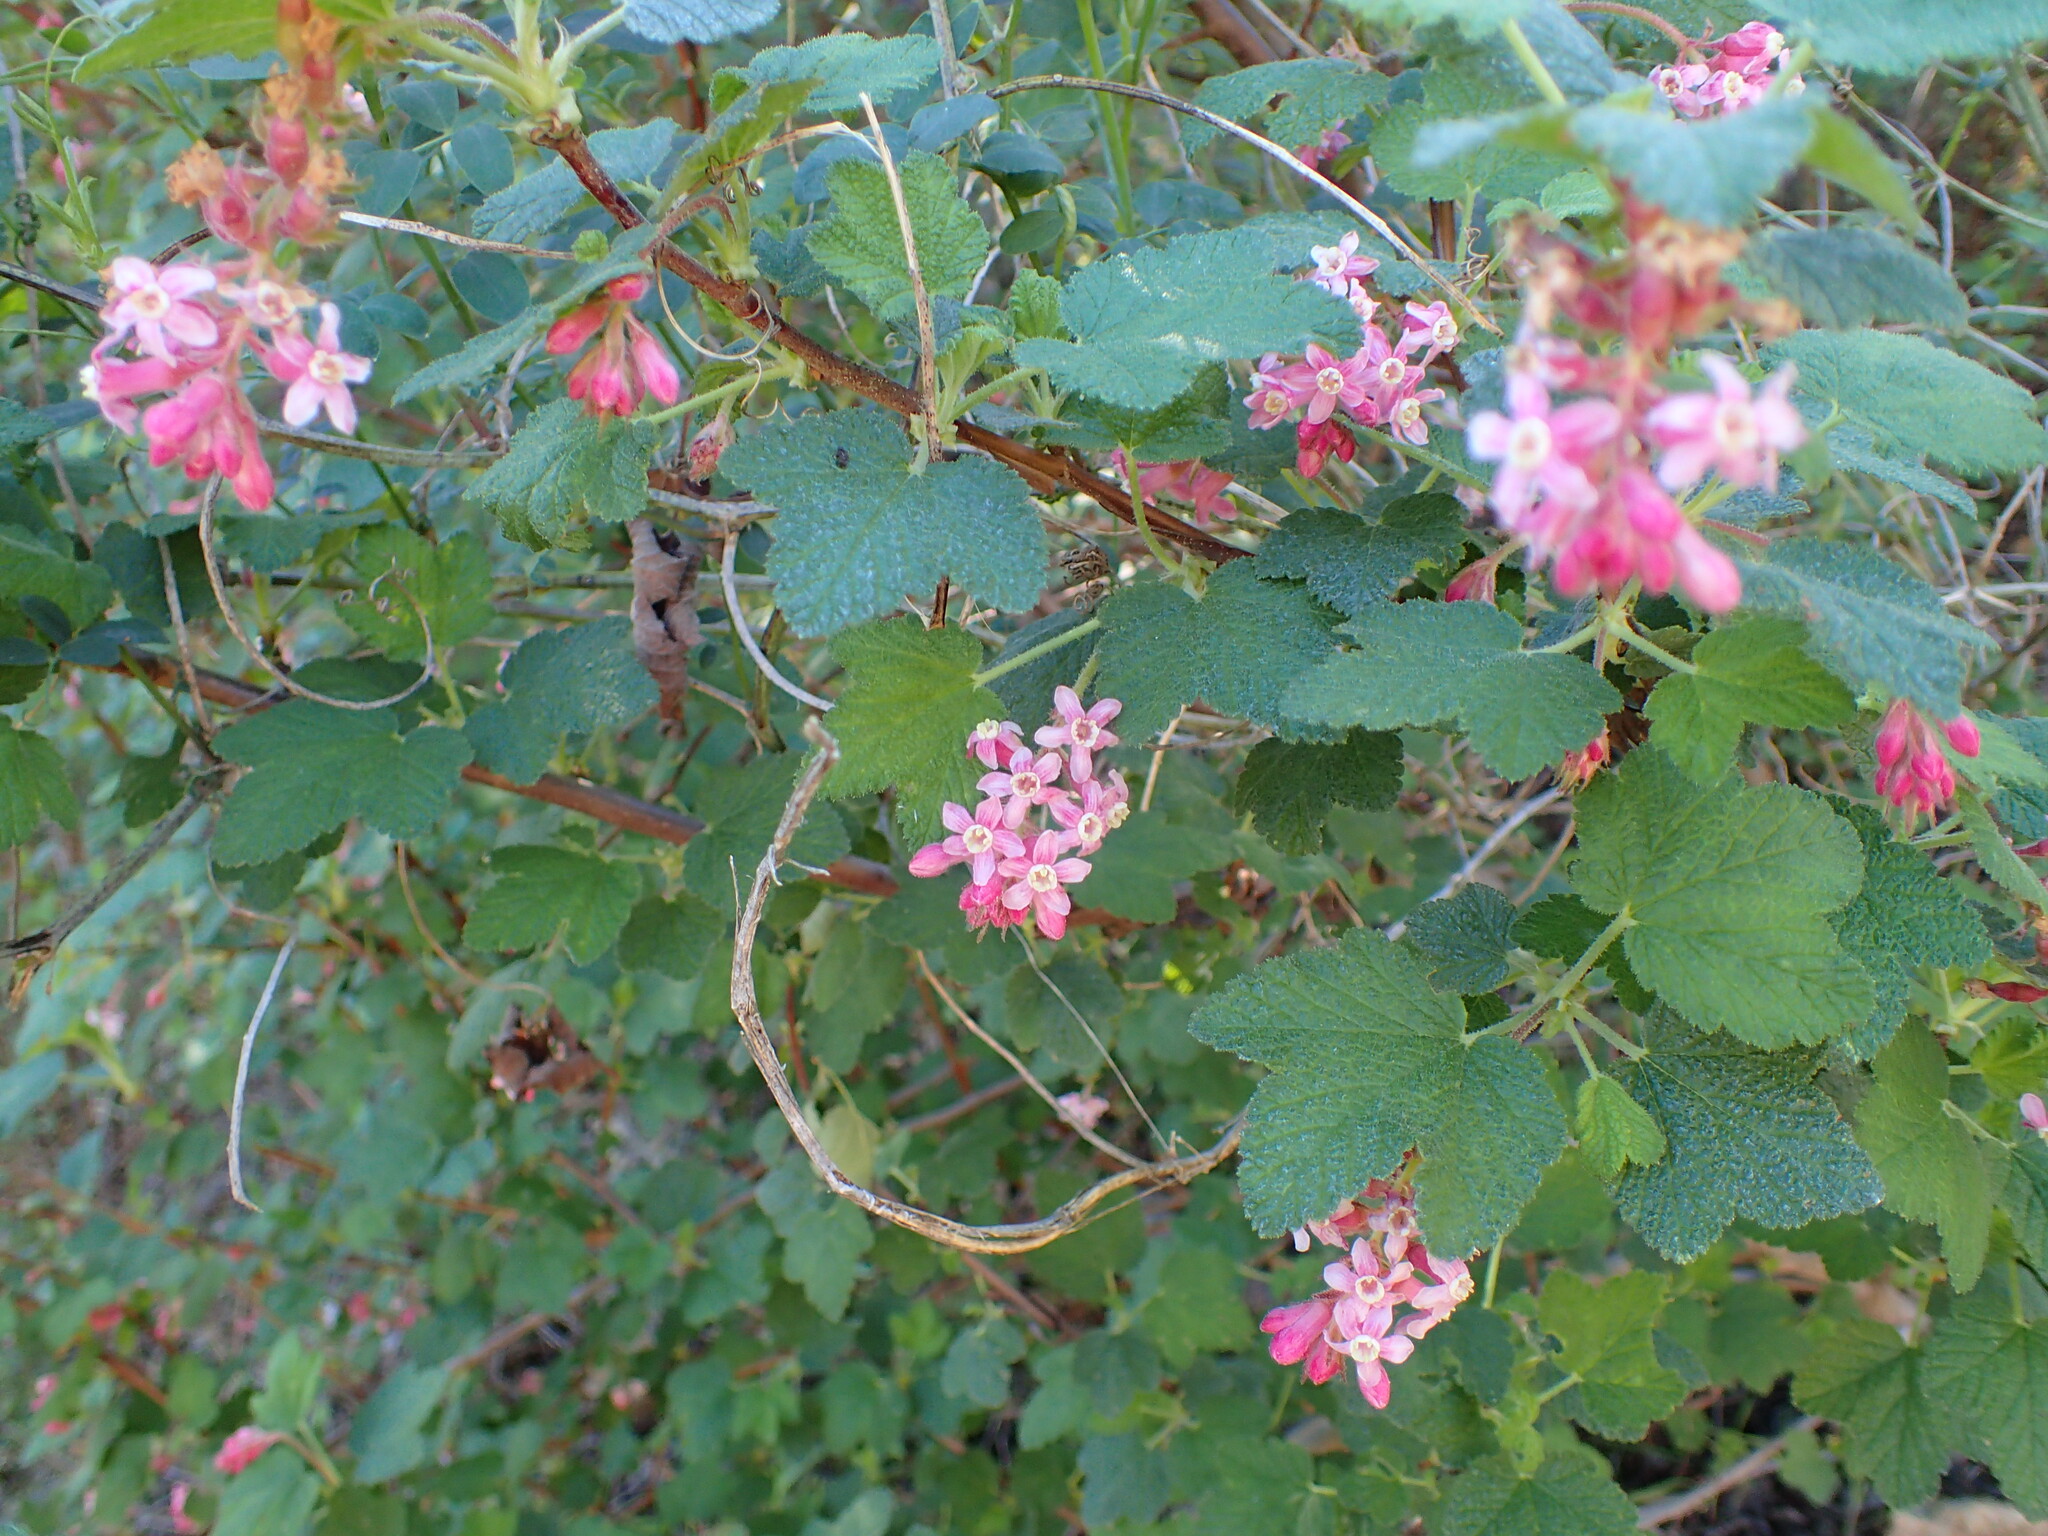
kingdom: Plantae
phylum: Tracheophyta
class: Magnoliopsida
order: Saxifragales
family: Grossulariaceae
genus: Ribes
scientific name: Ribes malvaceum
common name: Chaparral currant
